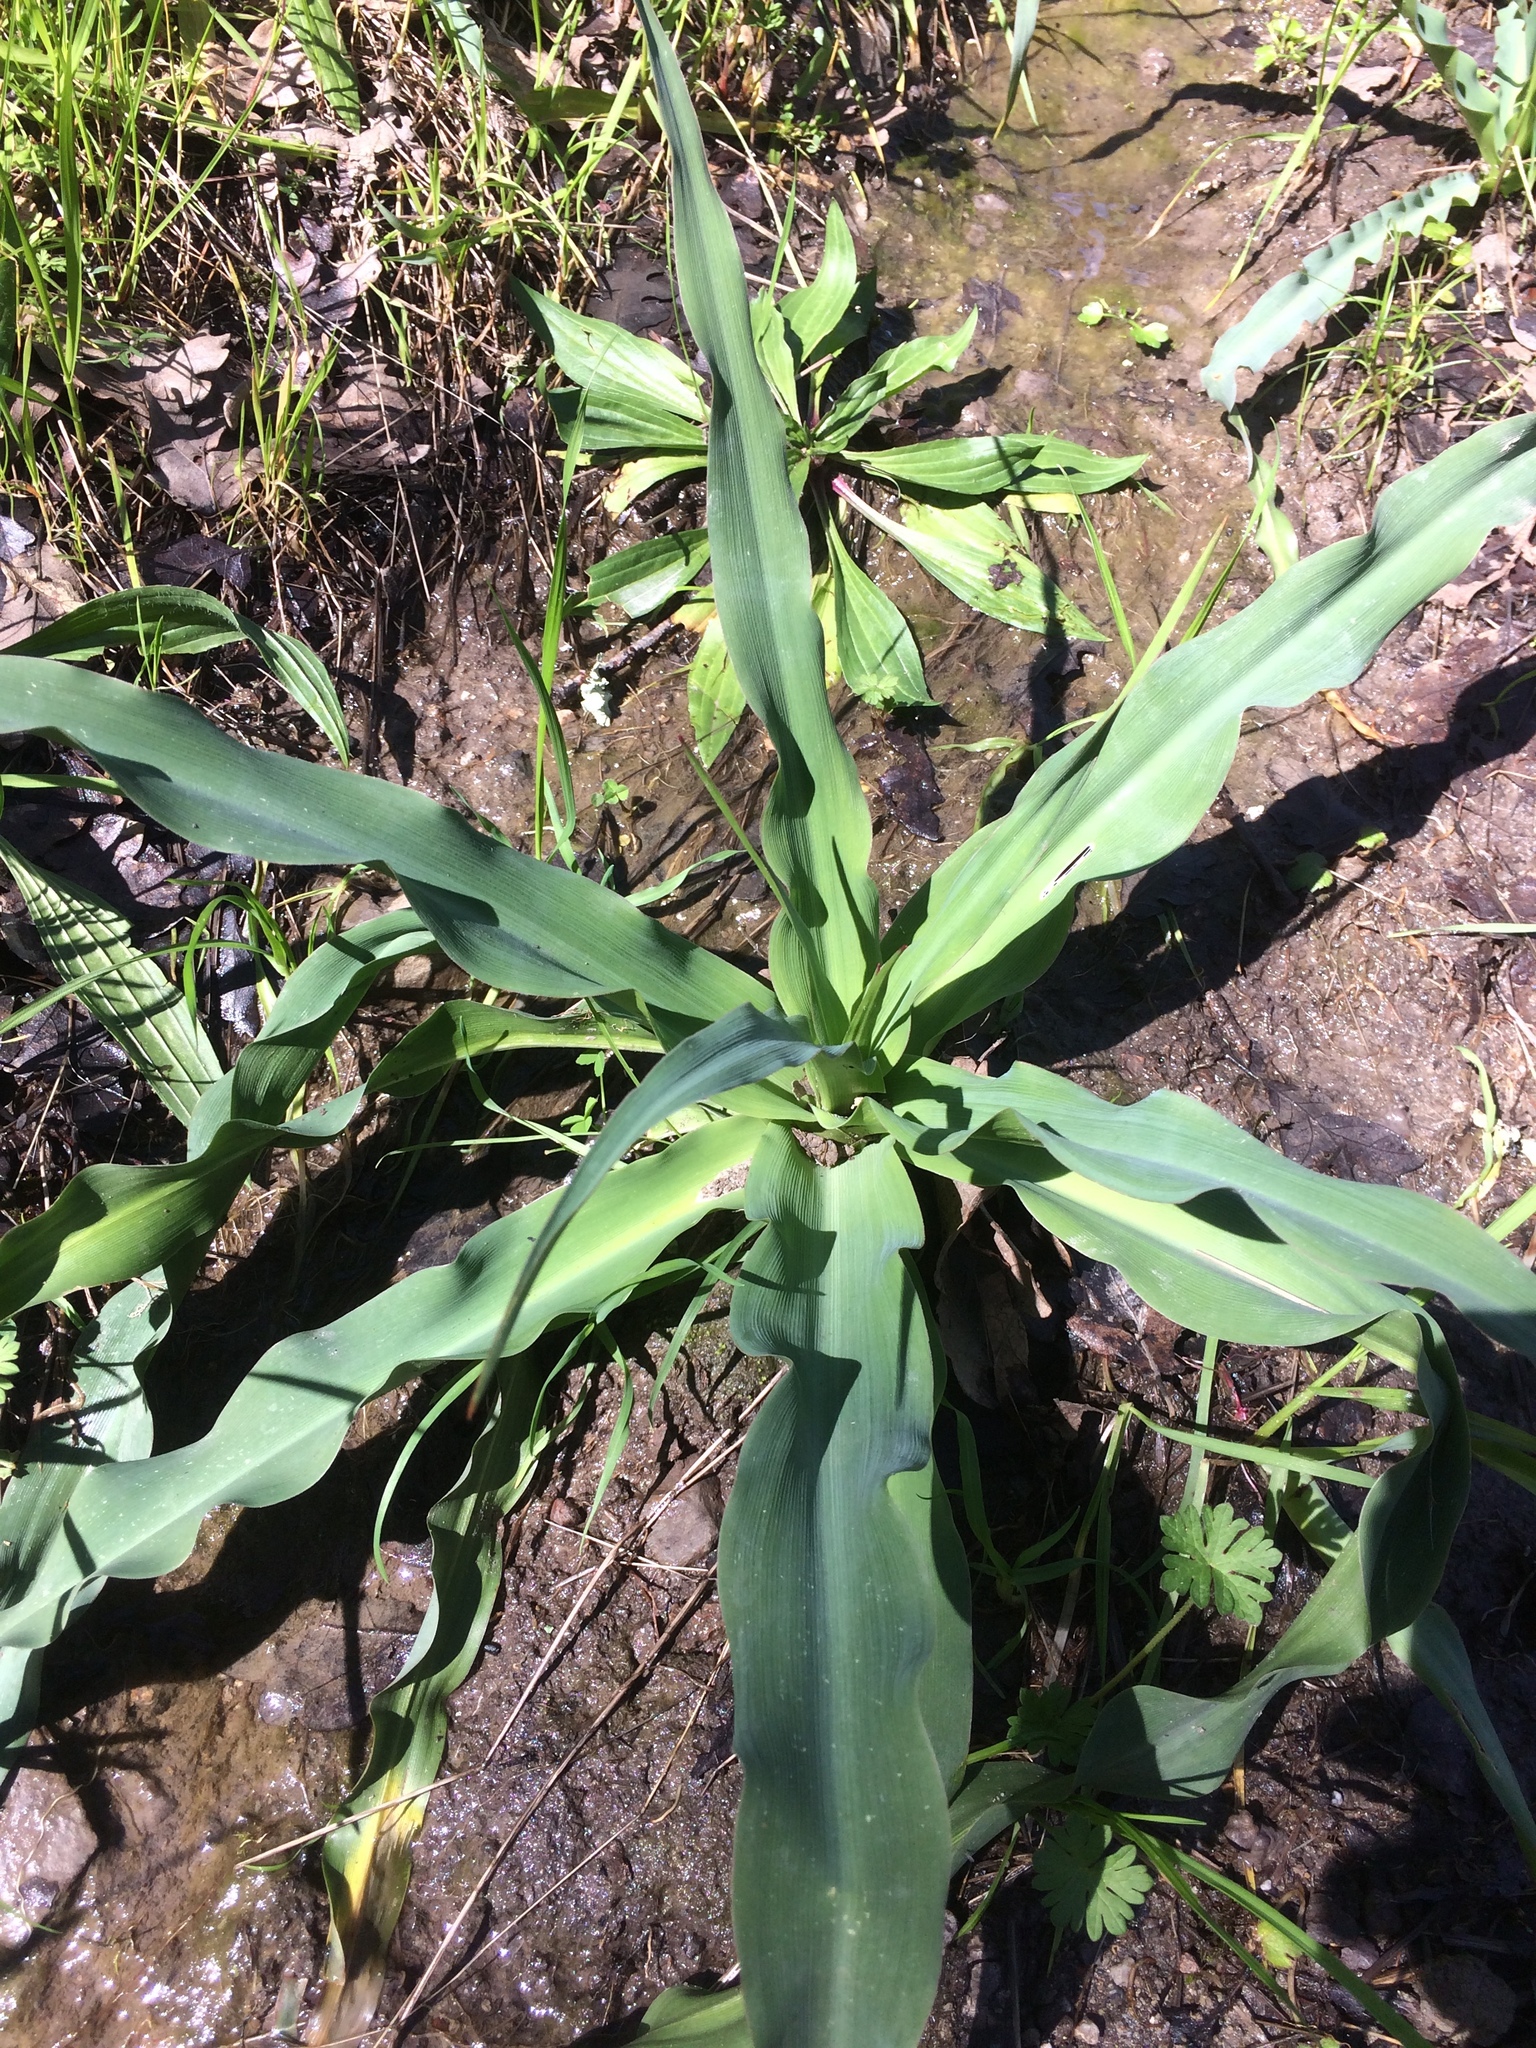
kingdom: Plantae
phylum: Tracheophyta
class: Liliopsida
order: Asparagales
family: Asparagaceae
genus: Chlorogalum
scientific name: Chlorogalum pomeridianum
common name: Amole
